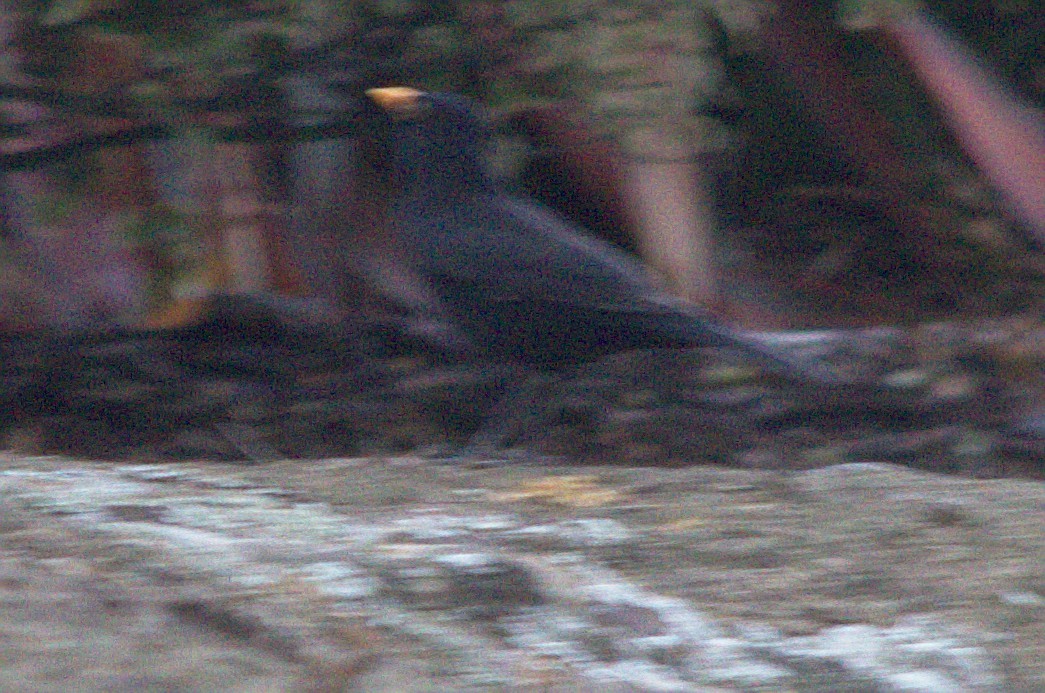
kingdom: Animalia
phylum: Chordata
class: Aves
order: Passeriformes
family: Turdidae
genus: Turdus
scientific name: Turdus merula
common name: Common blackbird
